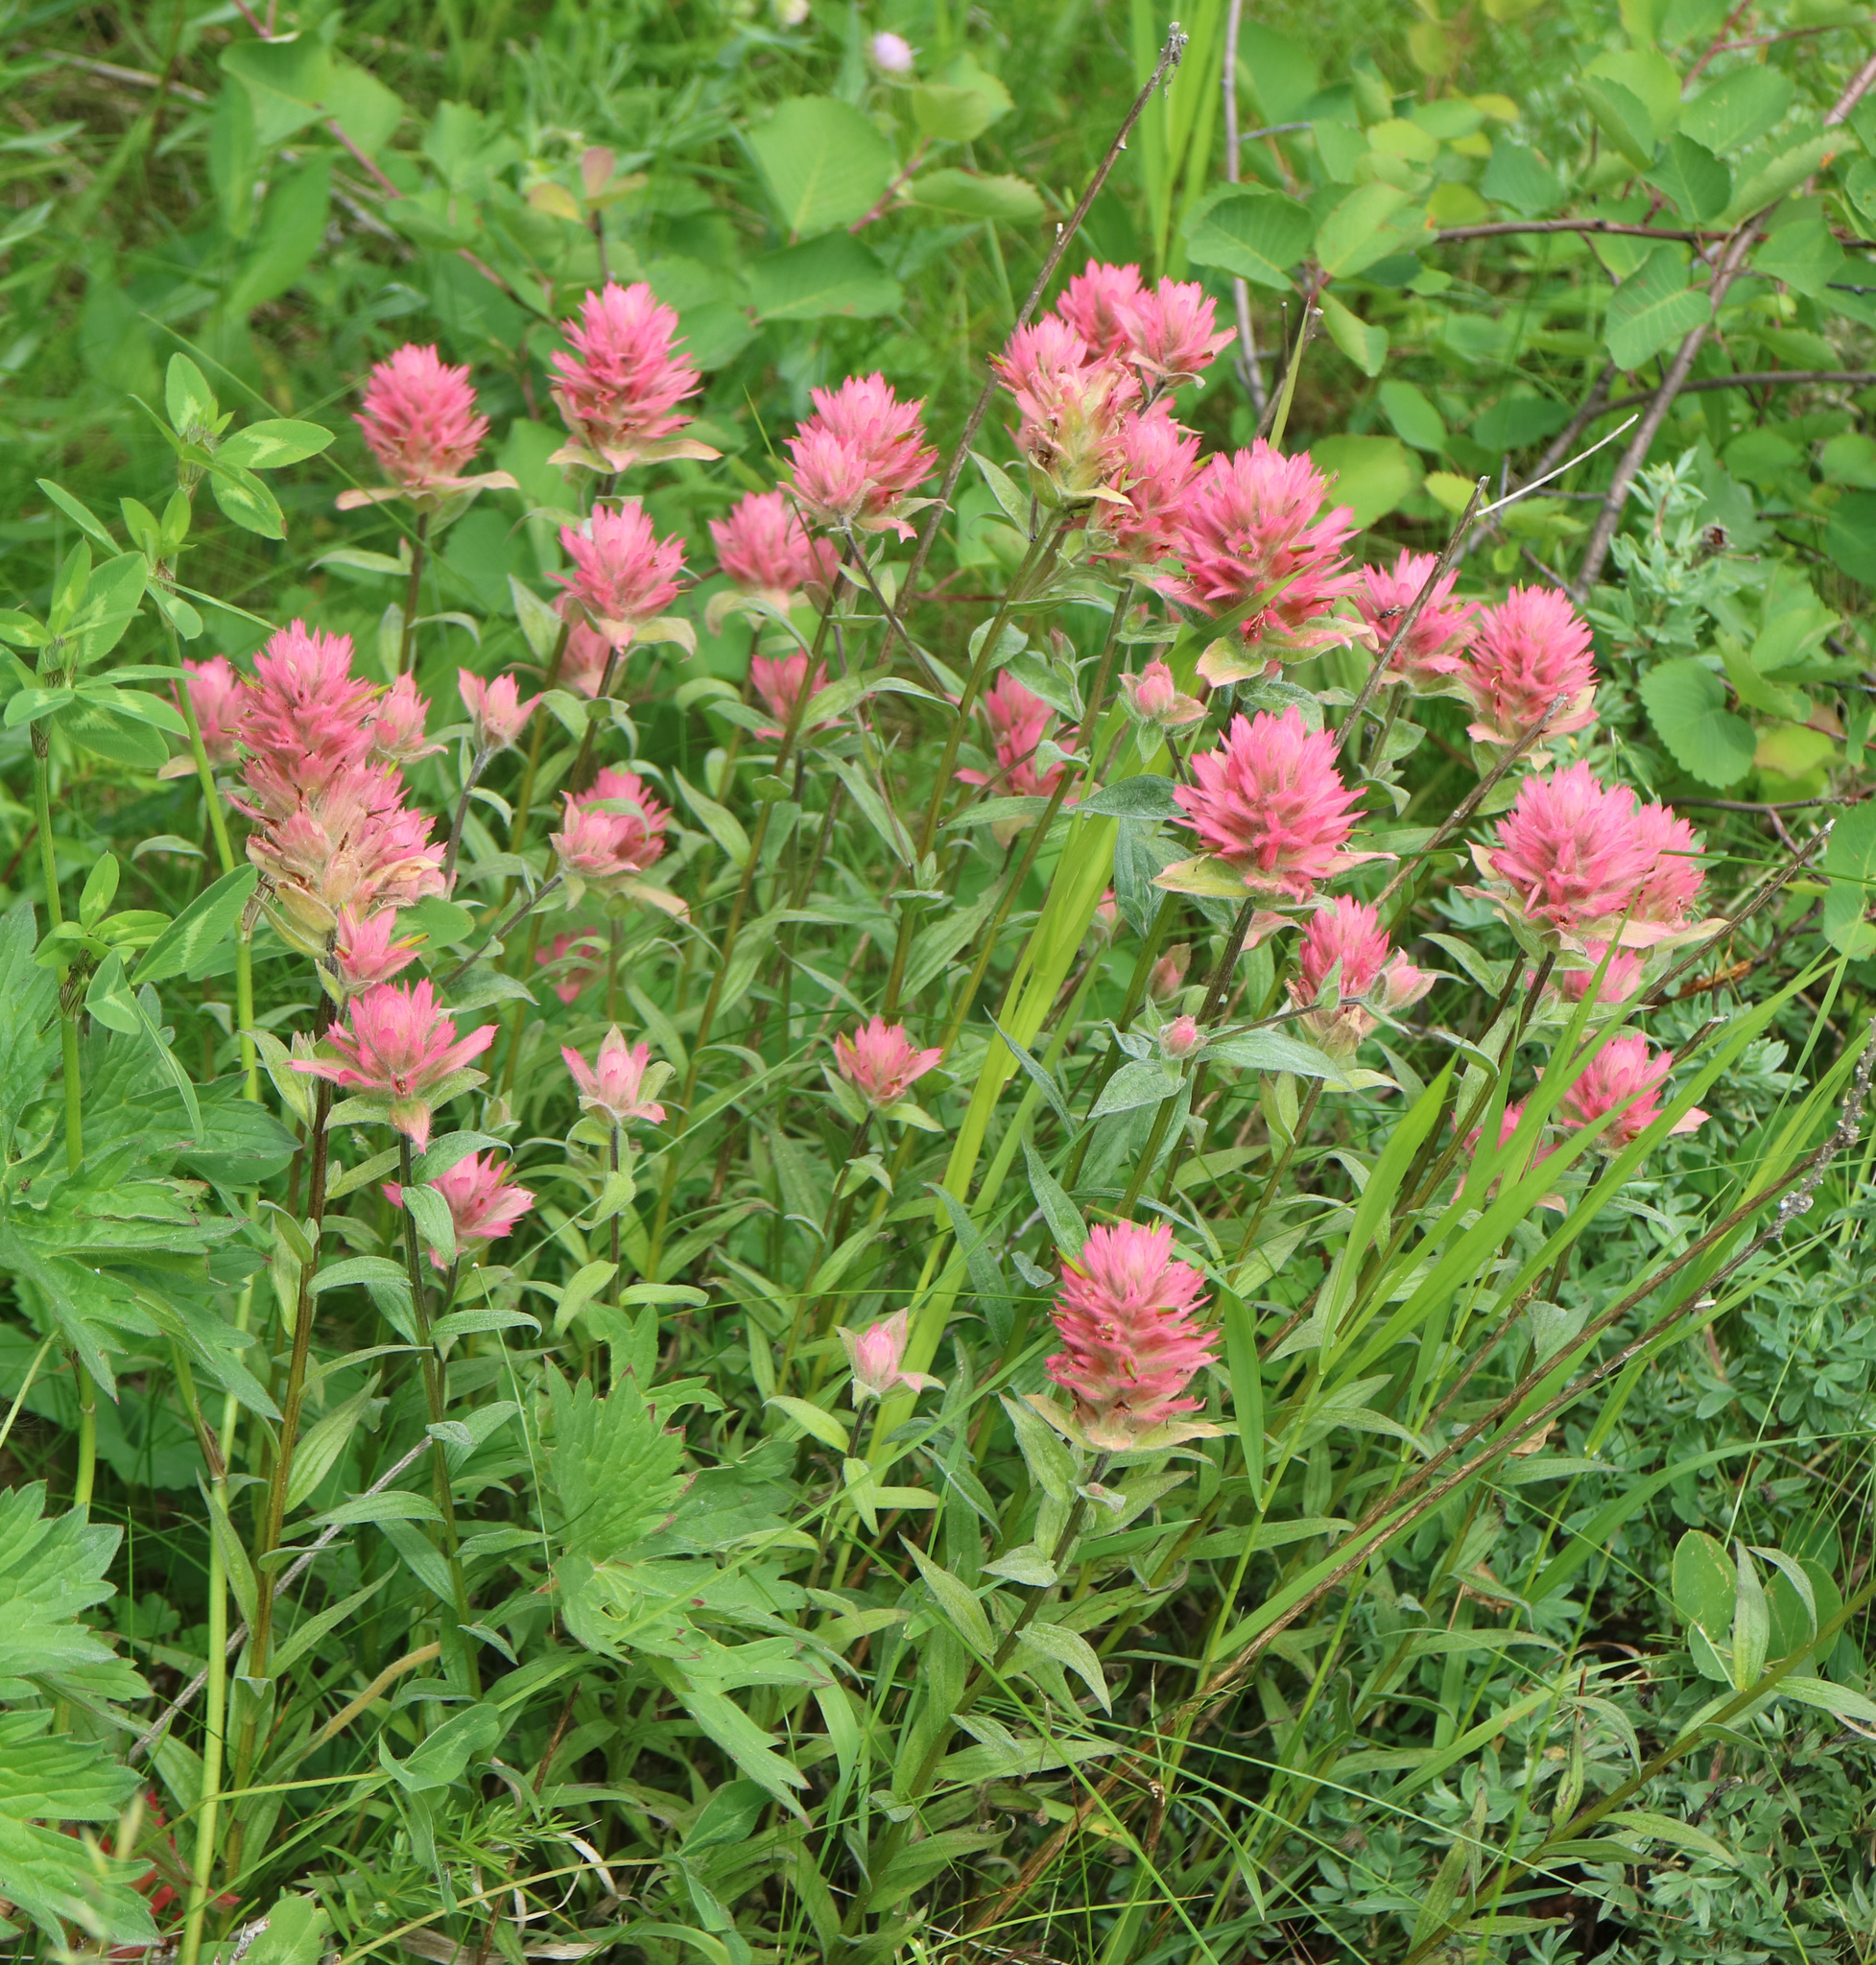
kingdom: Plantae
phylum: Tracheophyta
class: Magnoliopsida
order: Lamiales
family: Orobanchaceae
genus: Castilleja
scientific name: Castilleja miniata
